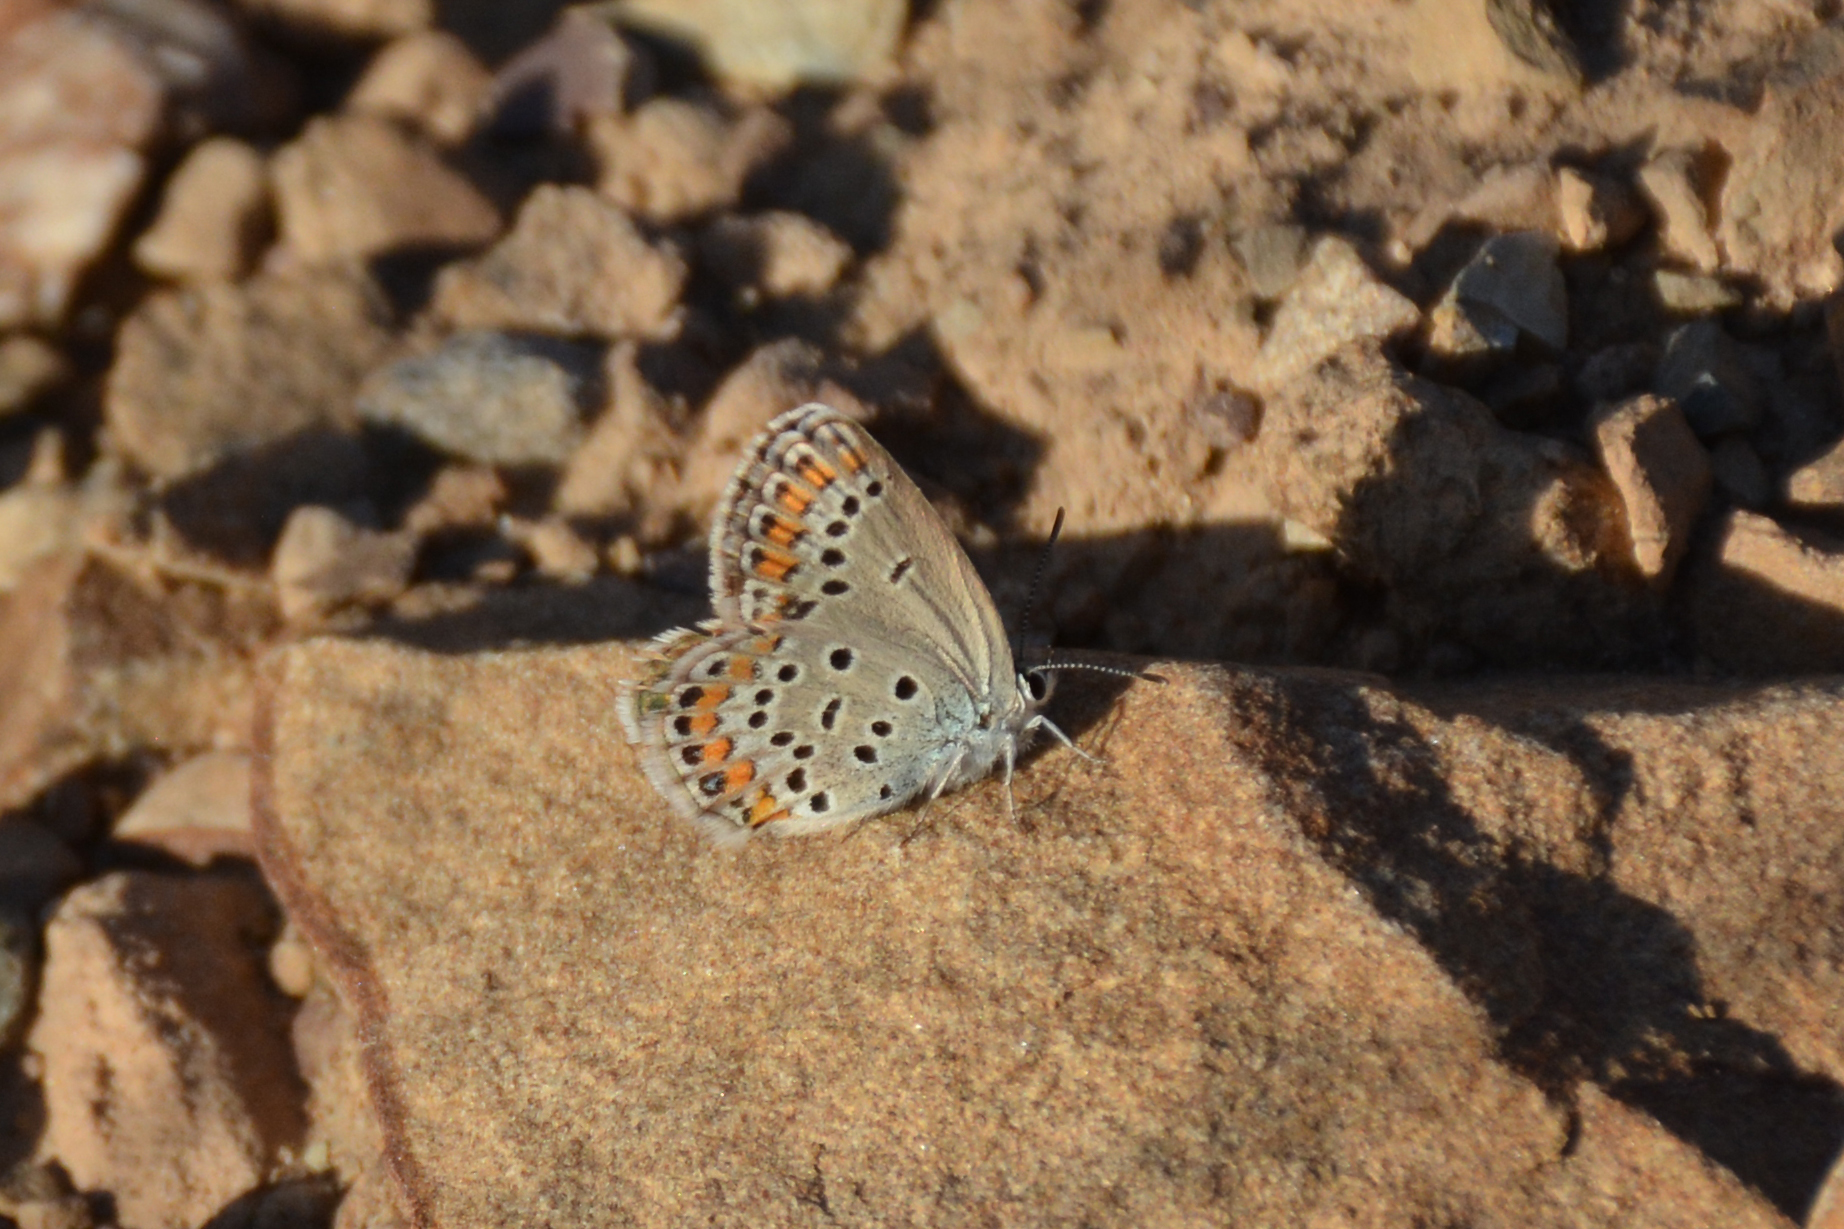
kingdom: Animalia
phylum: Arthropoda
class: Insecta
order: Lepidoptera
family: Lycaenidae
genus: Kretania
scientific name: Kretania eurypilus
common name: Eastern brown argus
